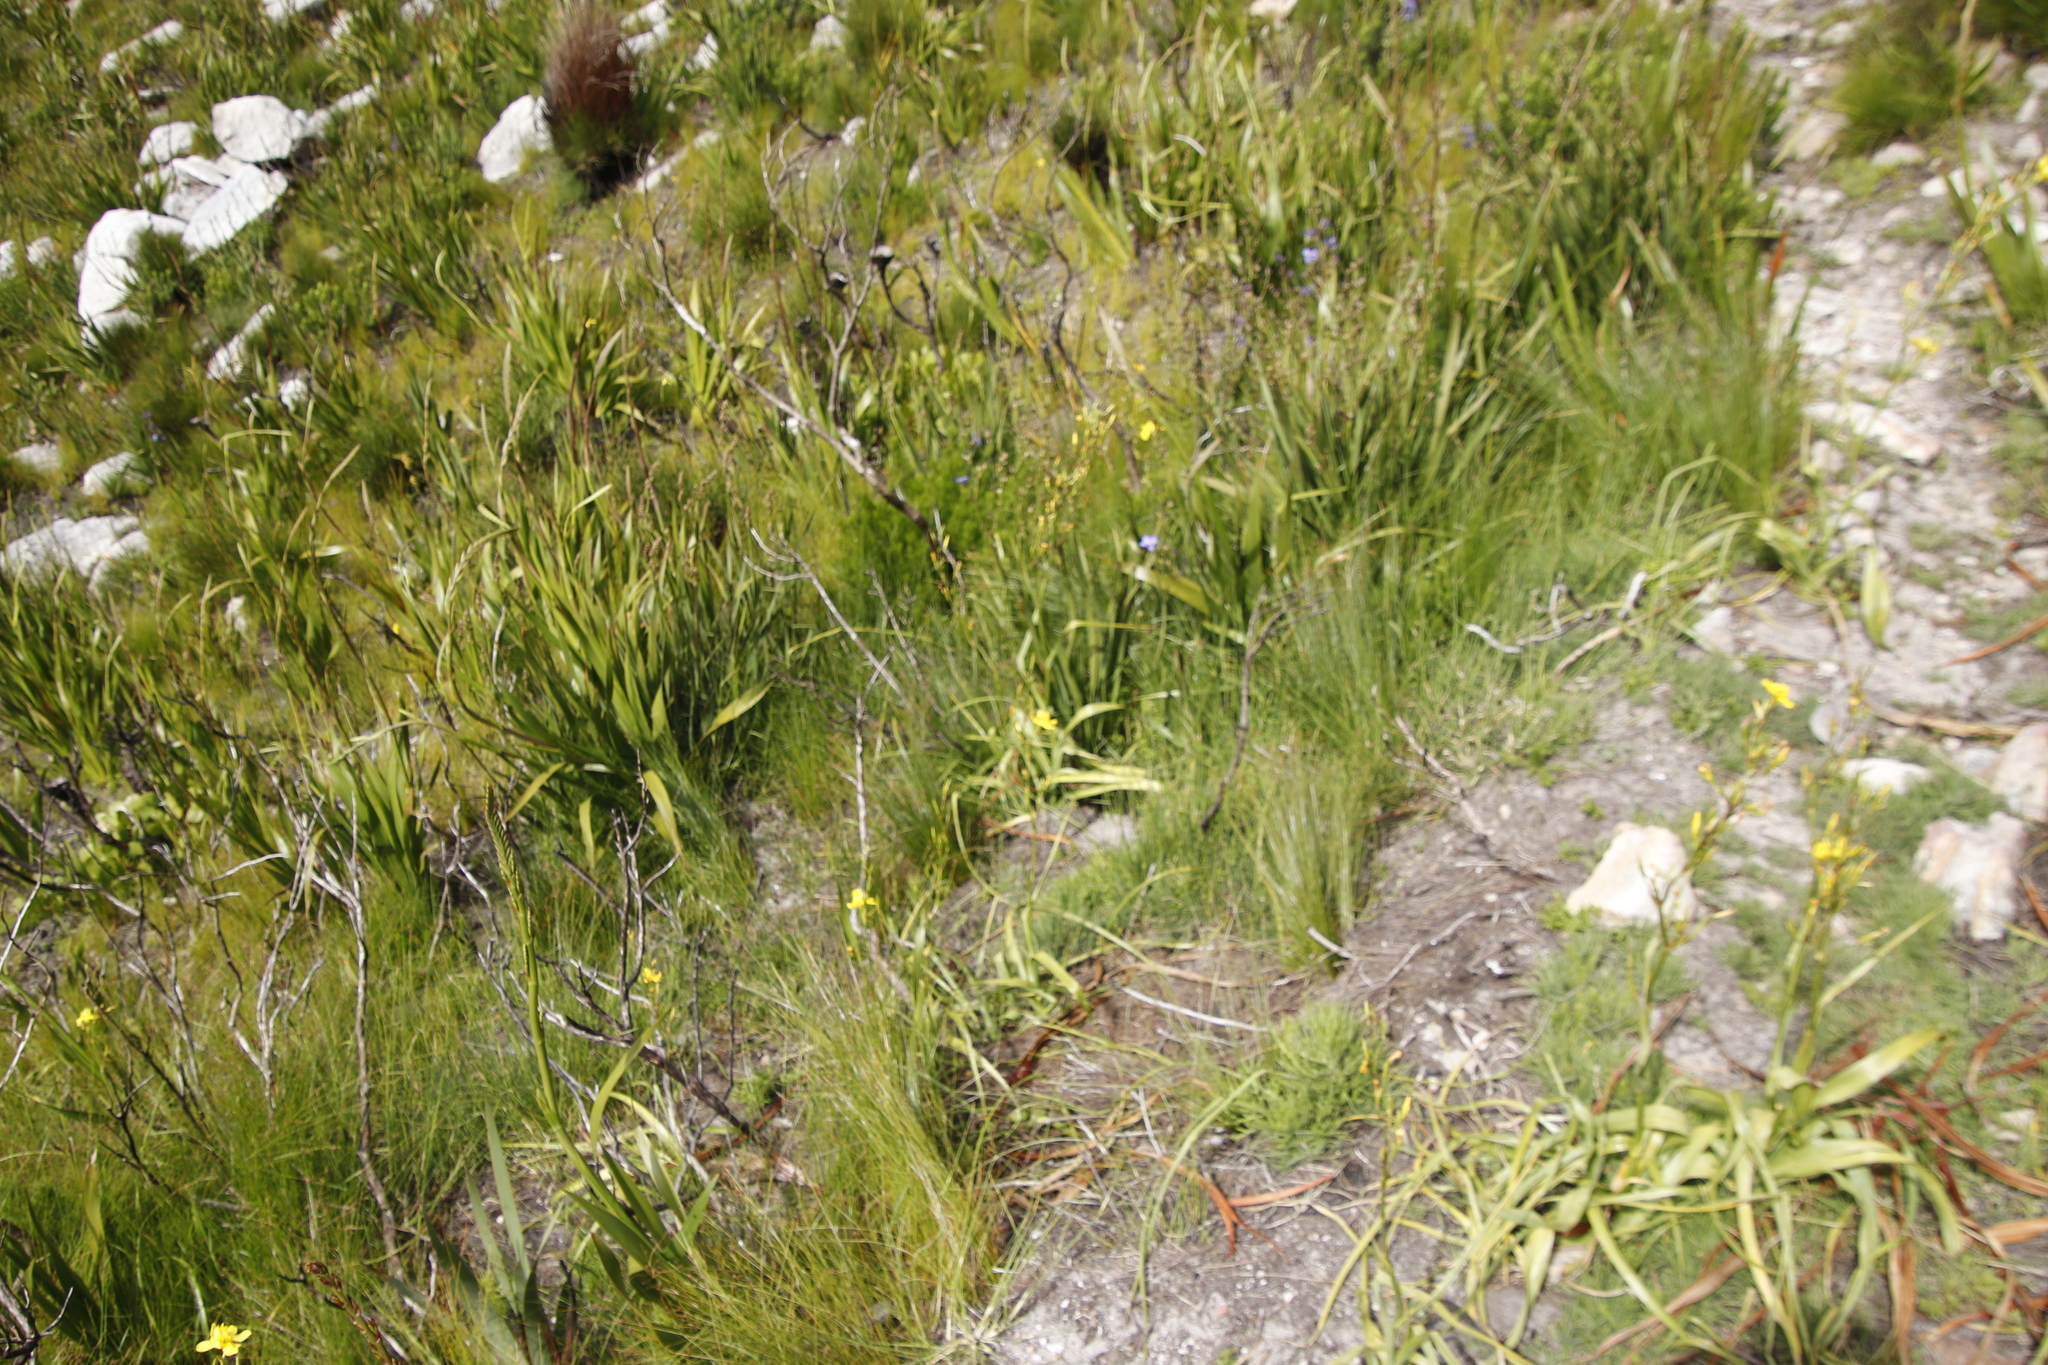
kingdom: Plantae
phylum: Tracheophyta
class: Liliopsida
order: Asparagales
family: Iridaceae
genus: Moraea
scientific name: Moraea ramosissima
